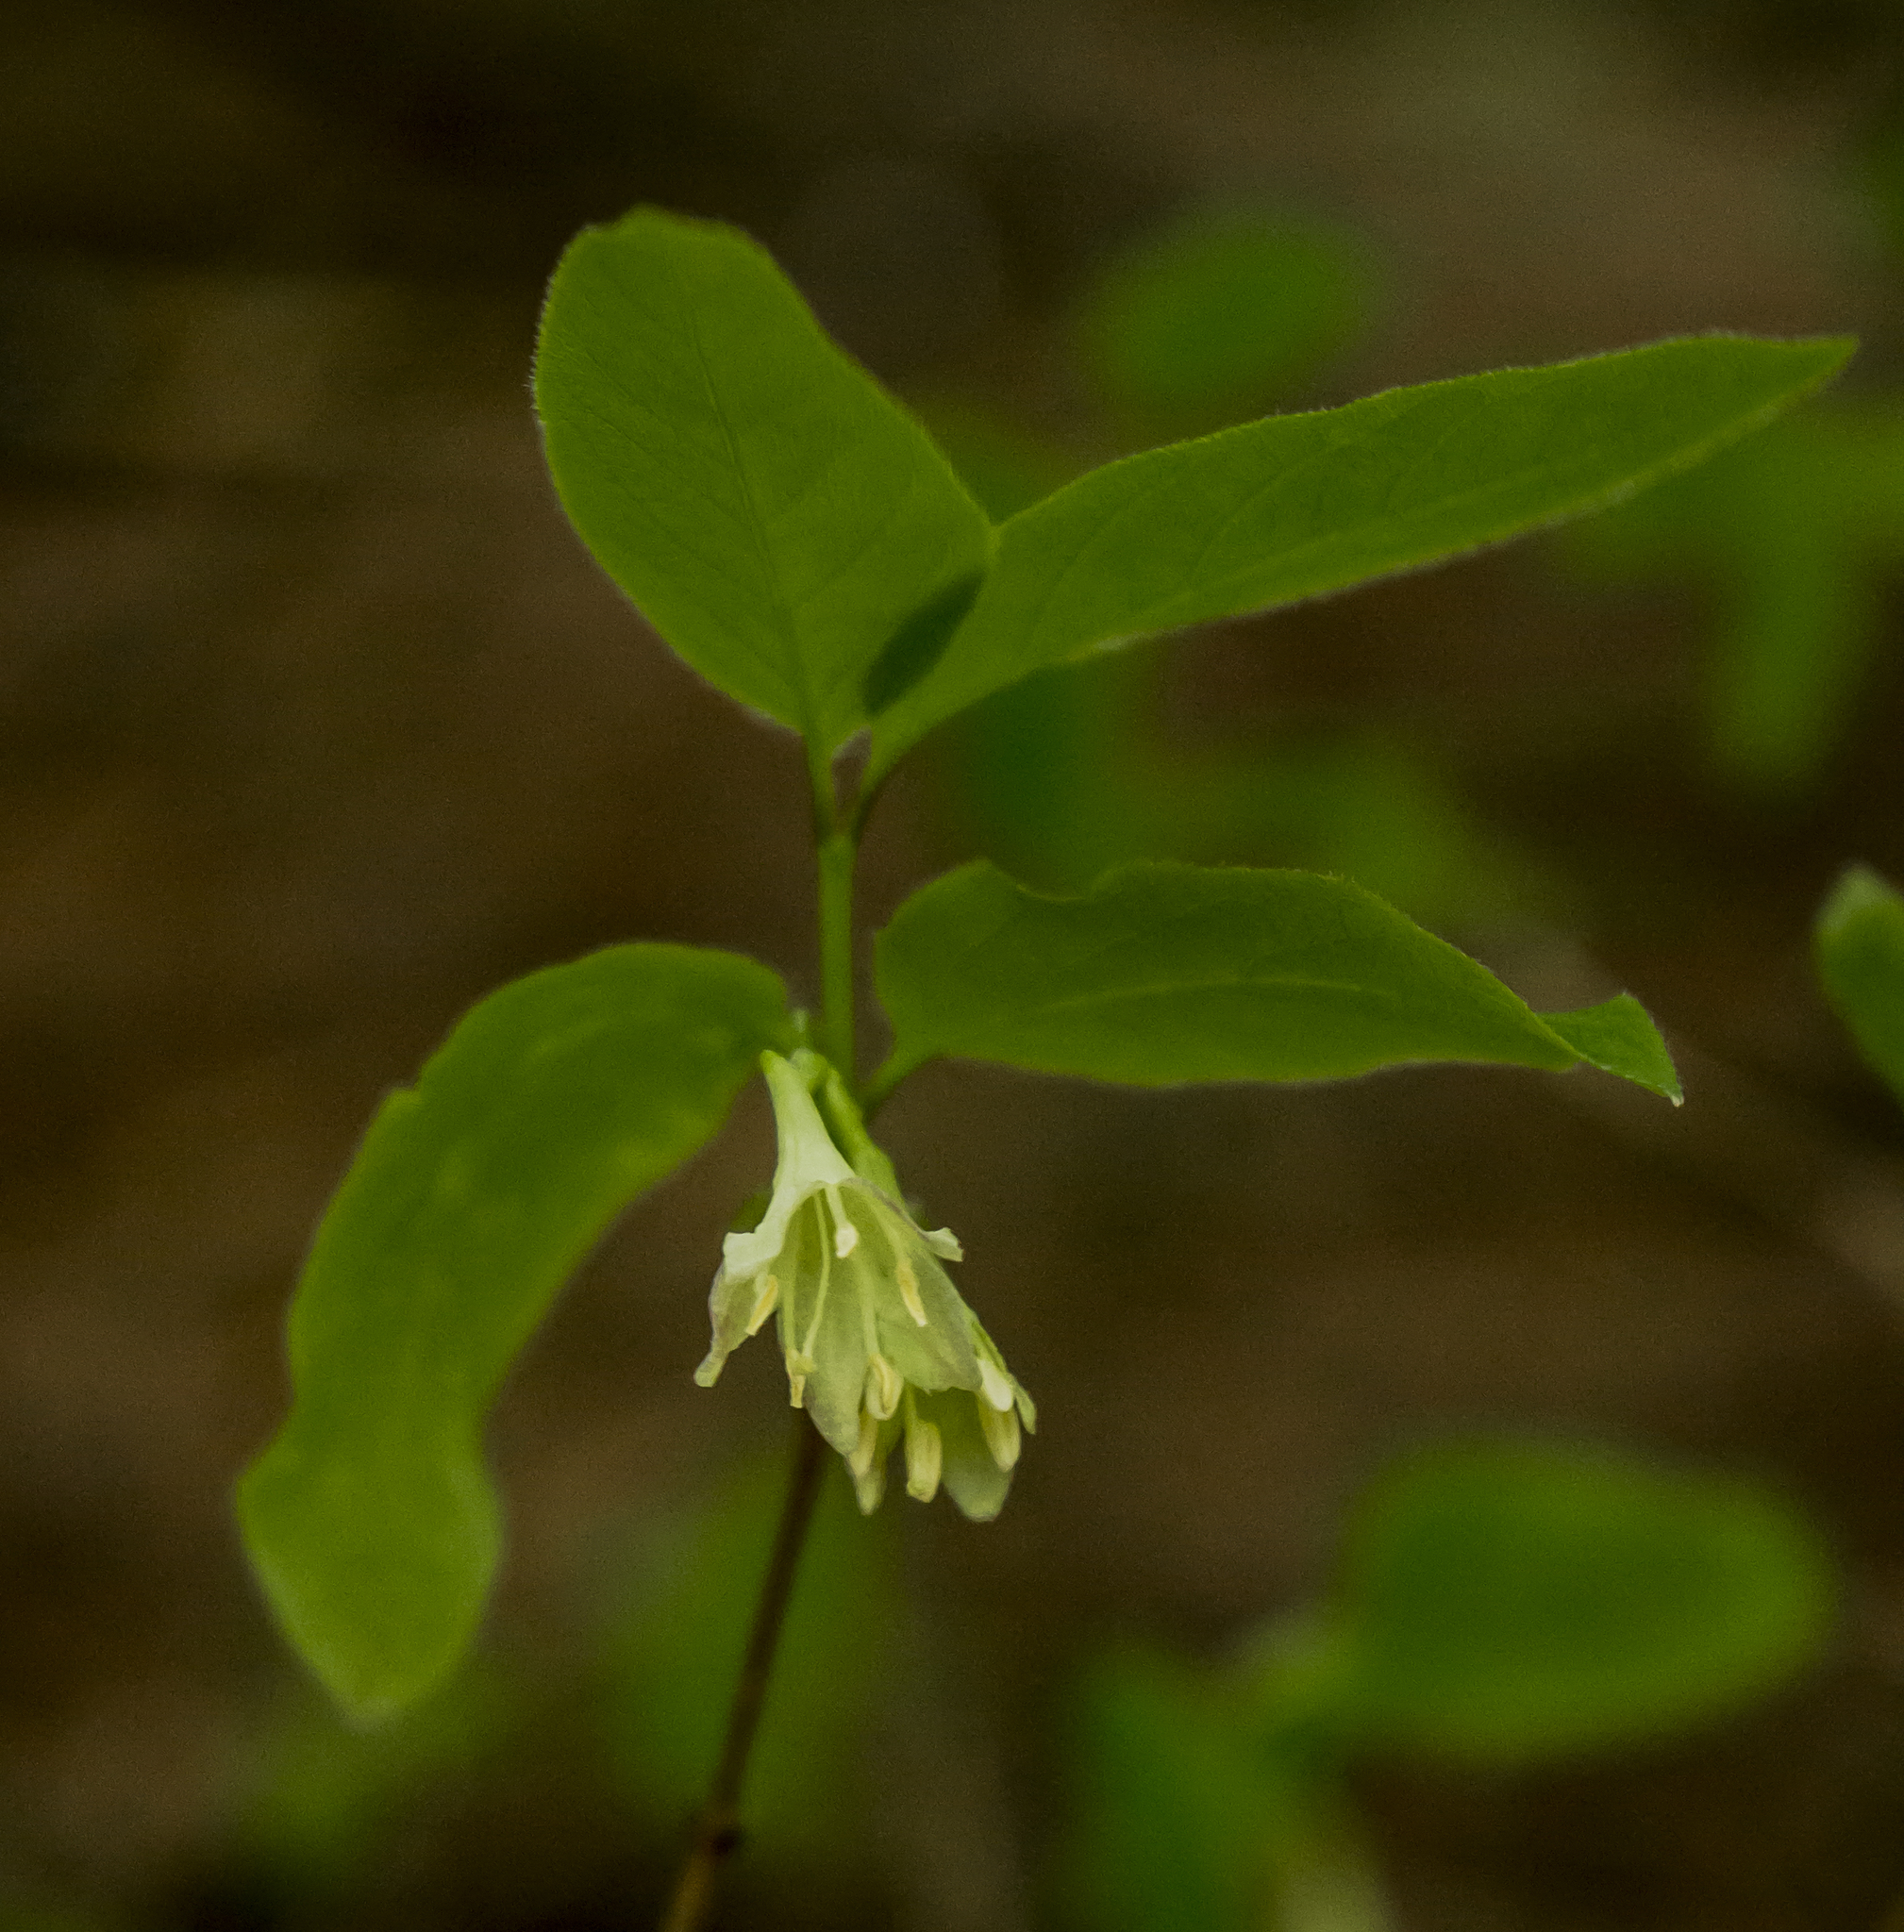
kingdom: Plantae
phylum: Tracheophyta
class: Magnoliopsida
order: Dipsacales
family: Caprifoliaceae
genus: Lonicera
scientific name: Lonicera canadensis
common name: American fly-honeysuckle
